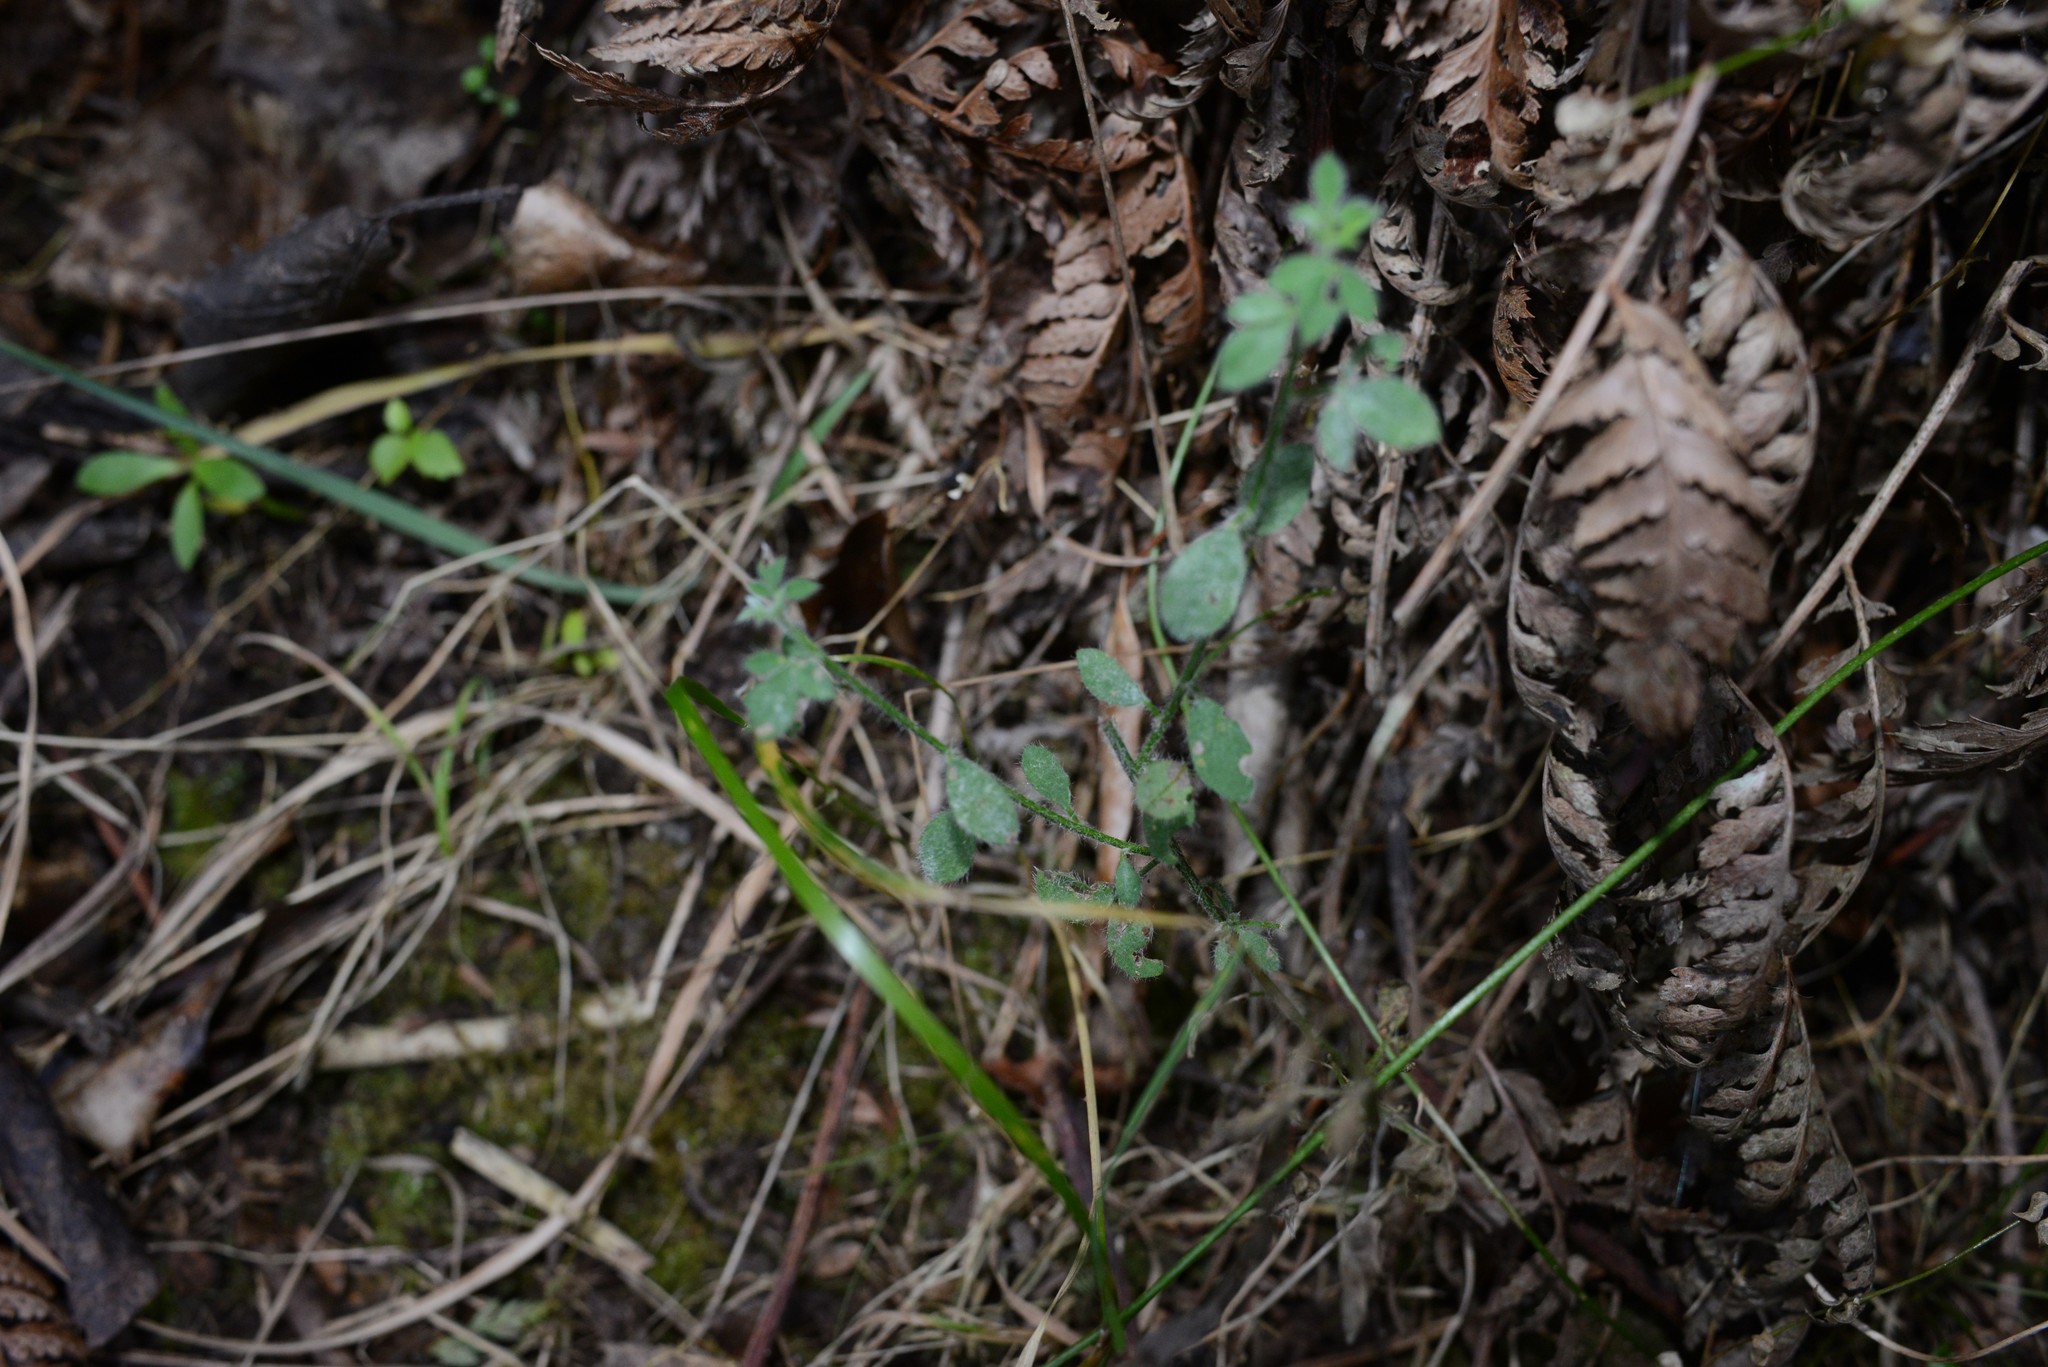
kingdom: Plantae
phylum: Tracheophyta
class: Magnoliopsida
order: Fabales
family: Fabaceae
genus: Cytisus
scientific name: Cytisus scoparius
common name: Scotch broom
